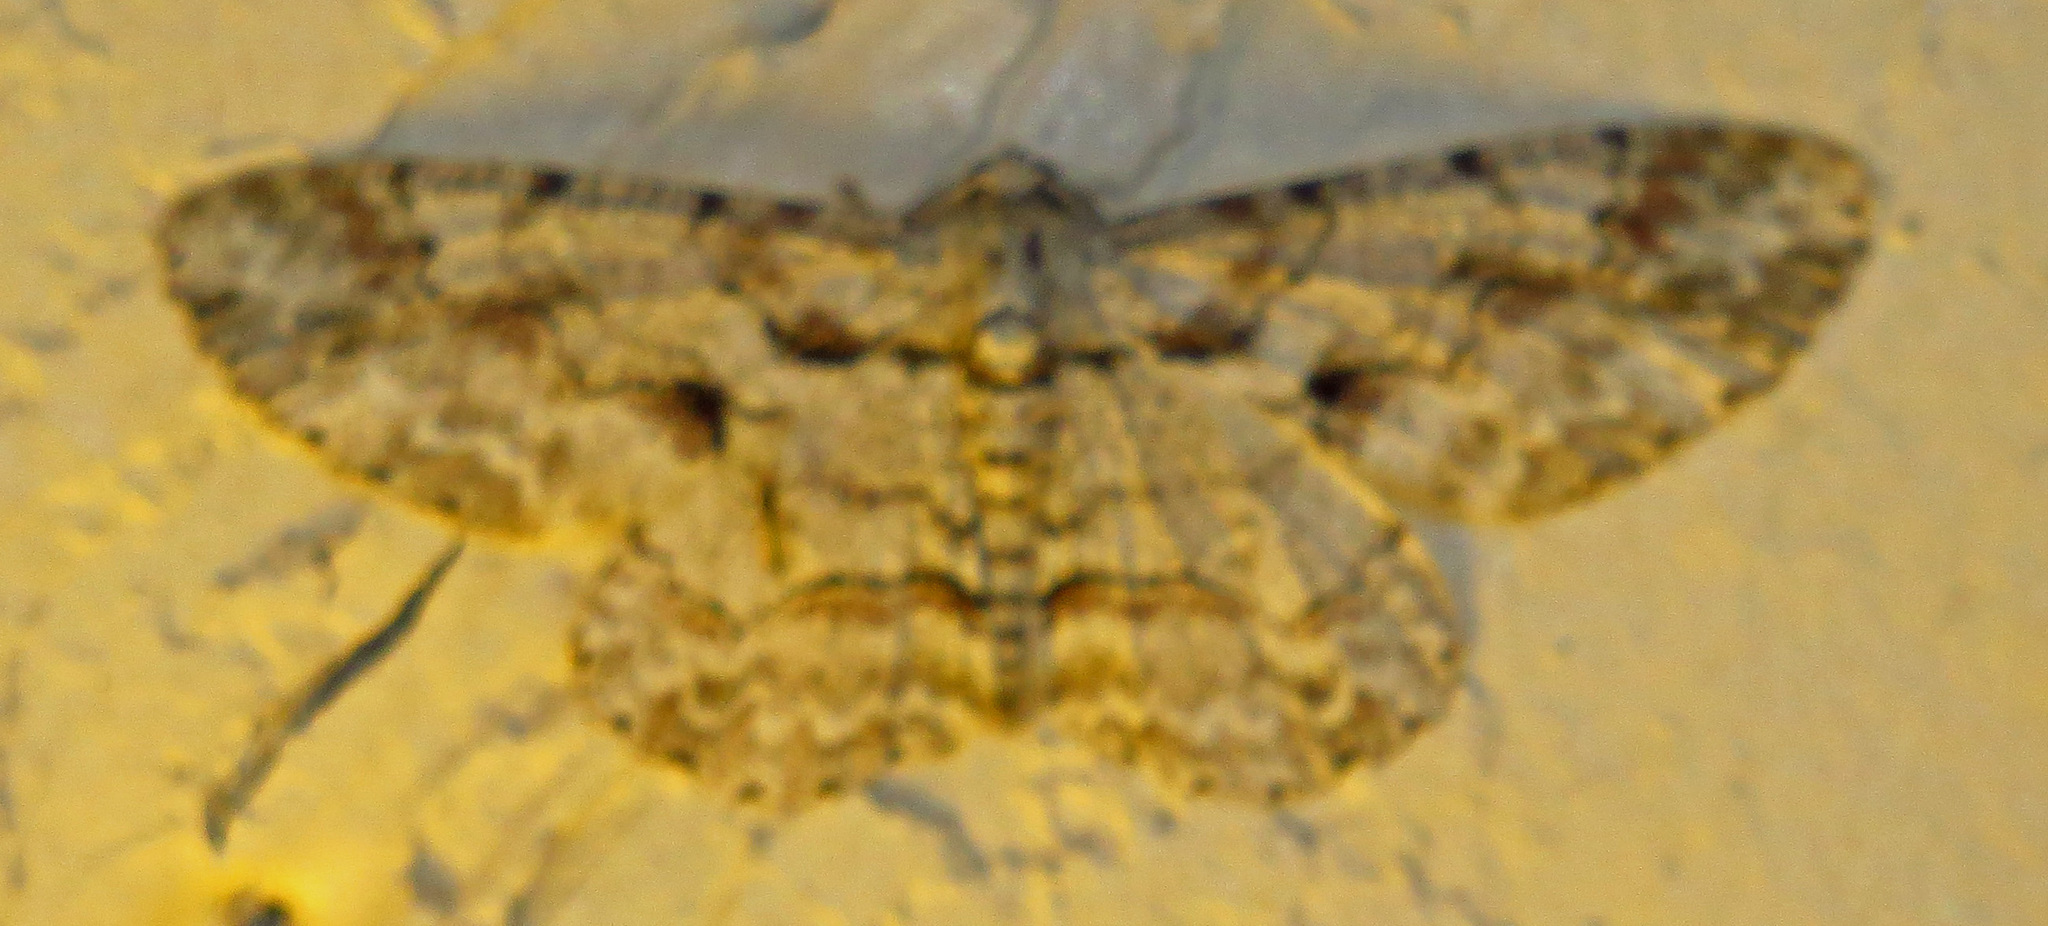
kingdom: Animalia
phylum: Arthropoda
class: Insecta
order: Lepidoptera
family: Geometridae
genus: Iridopsis
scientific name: Iridopsis defectaria
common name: Brown-shaded gray
